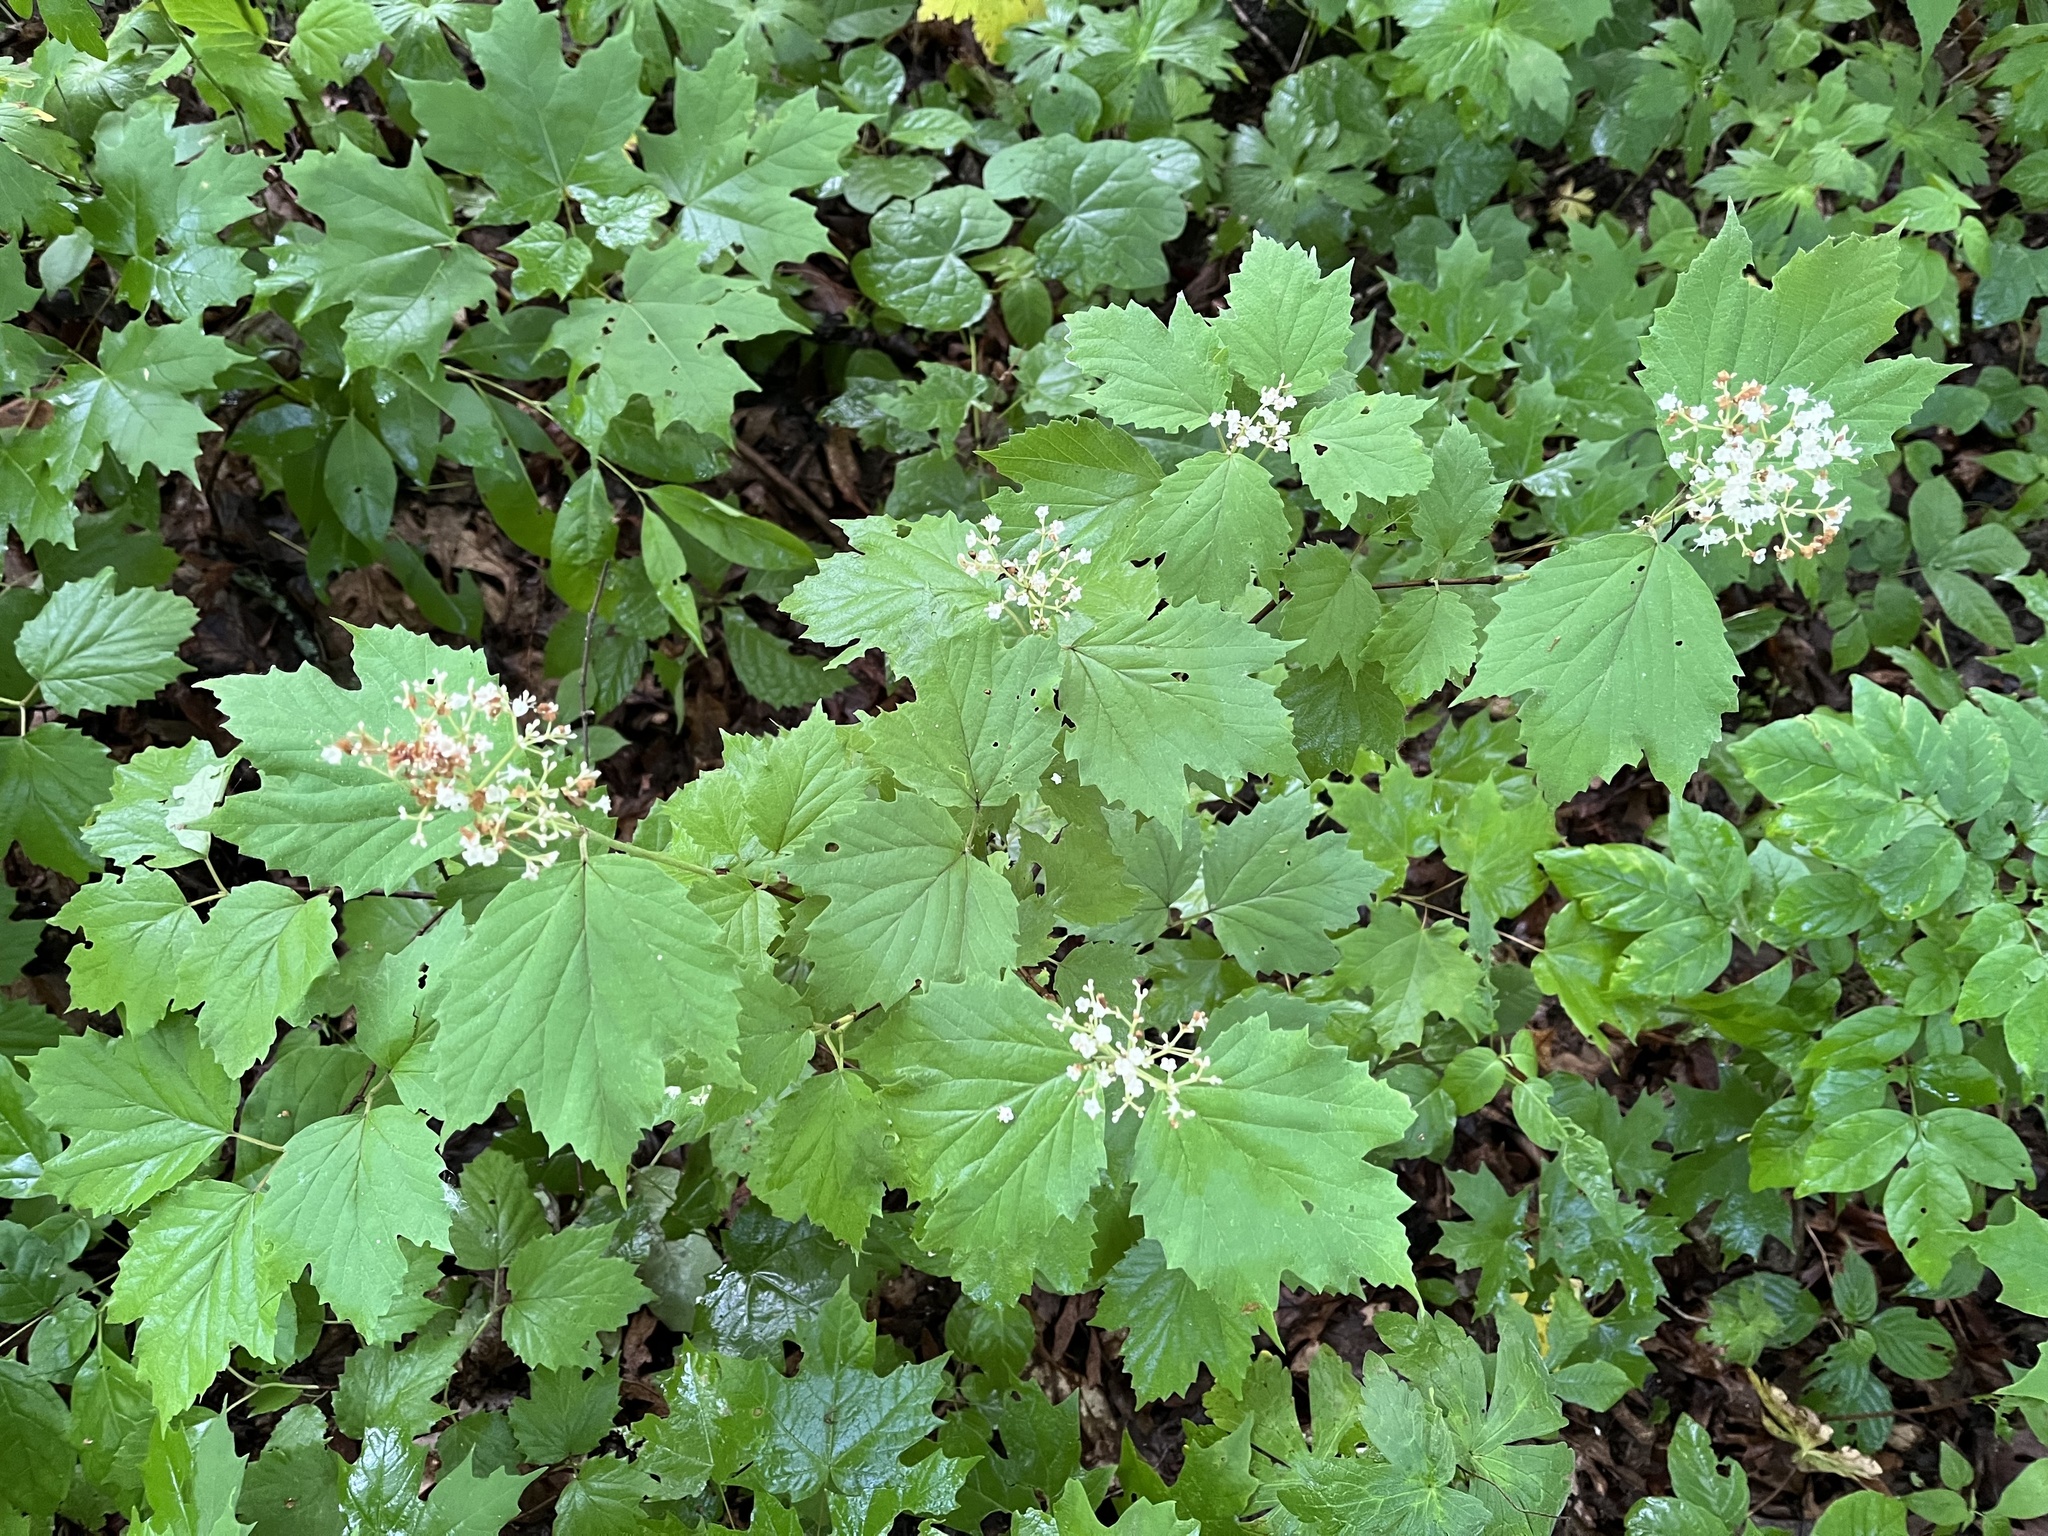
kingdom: Plantae
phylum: Tracheophyta
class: Magnoliopsida
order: Dipsacales
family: Viburnaceae
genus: Viburnum
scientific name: Viburnum acerifolium
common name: Dockmackie
